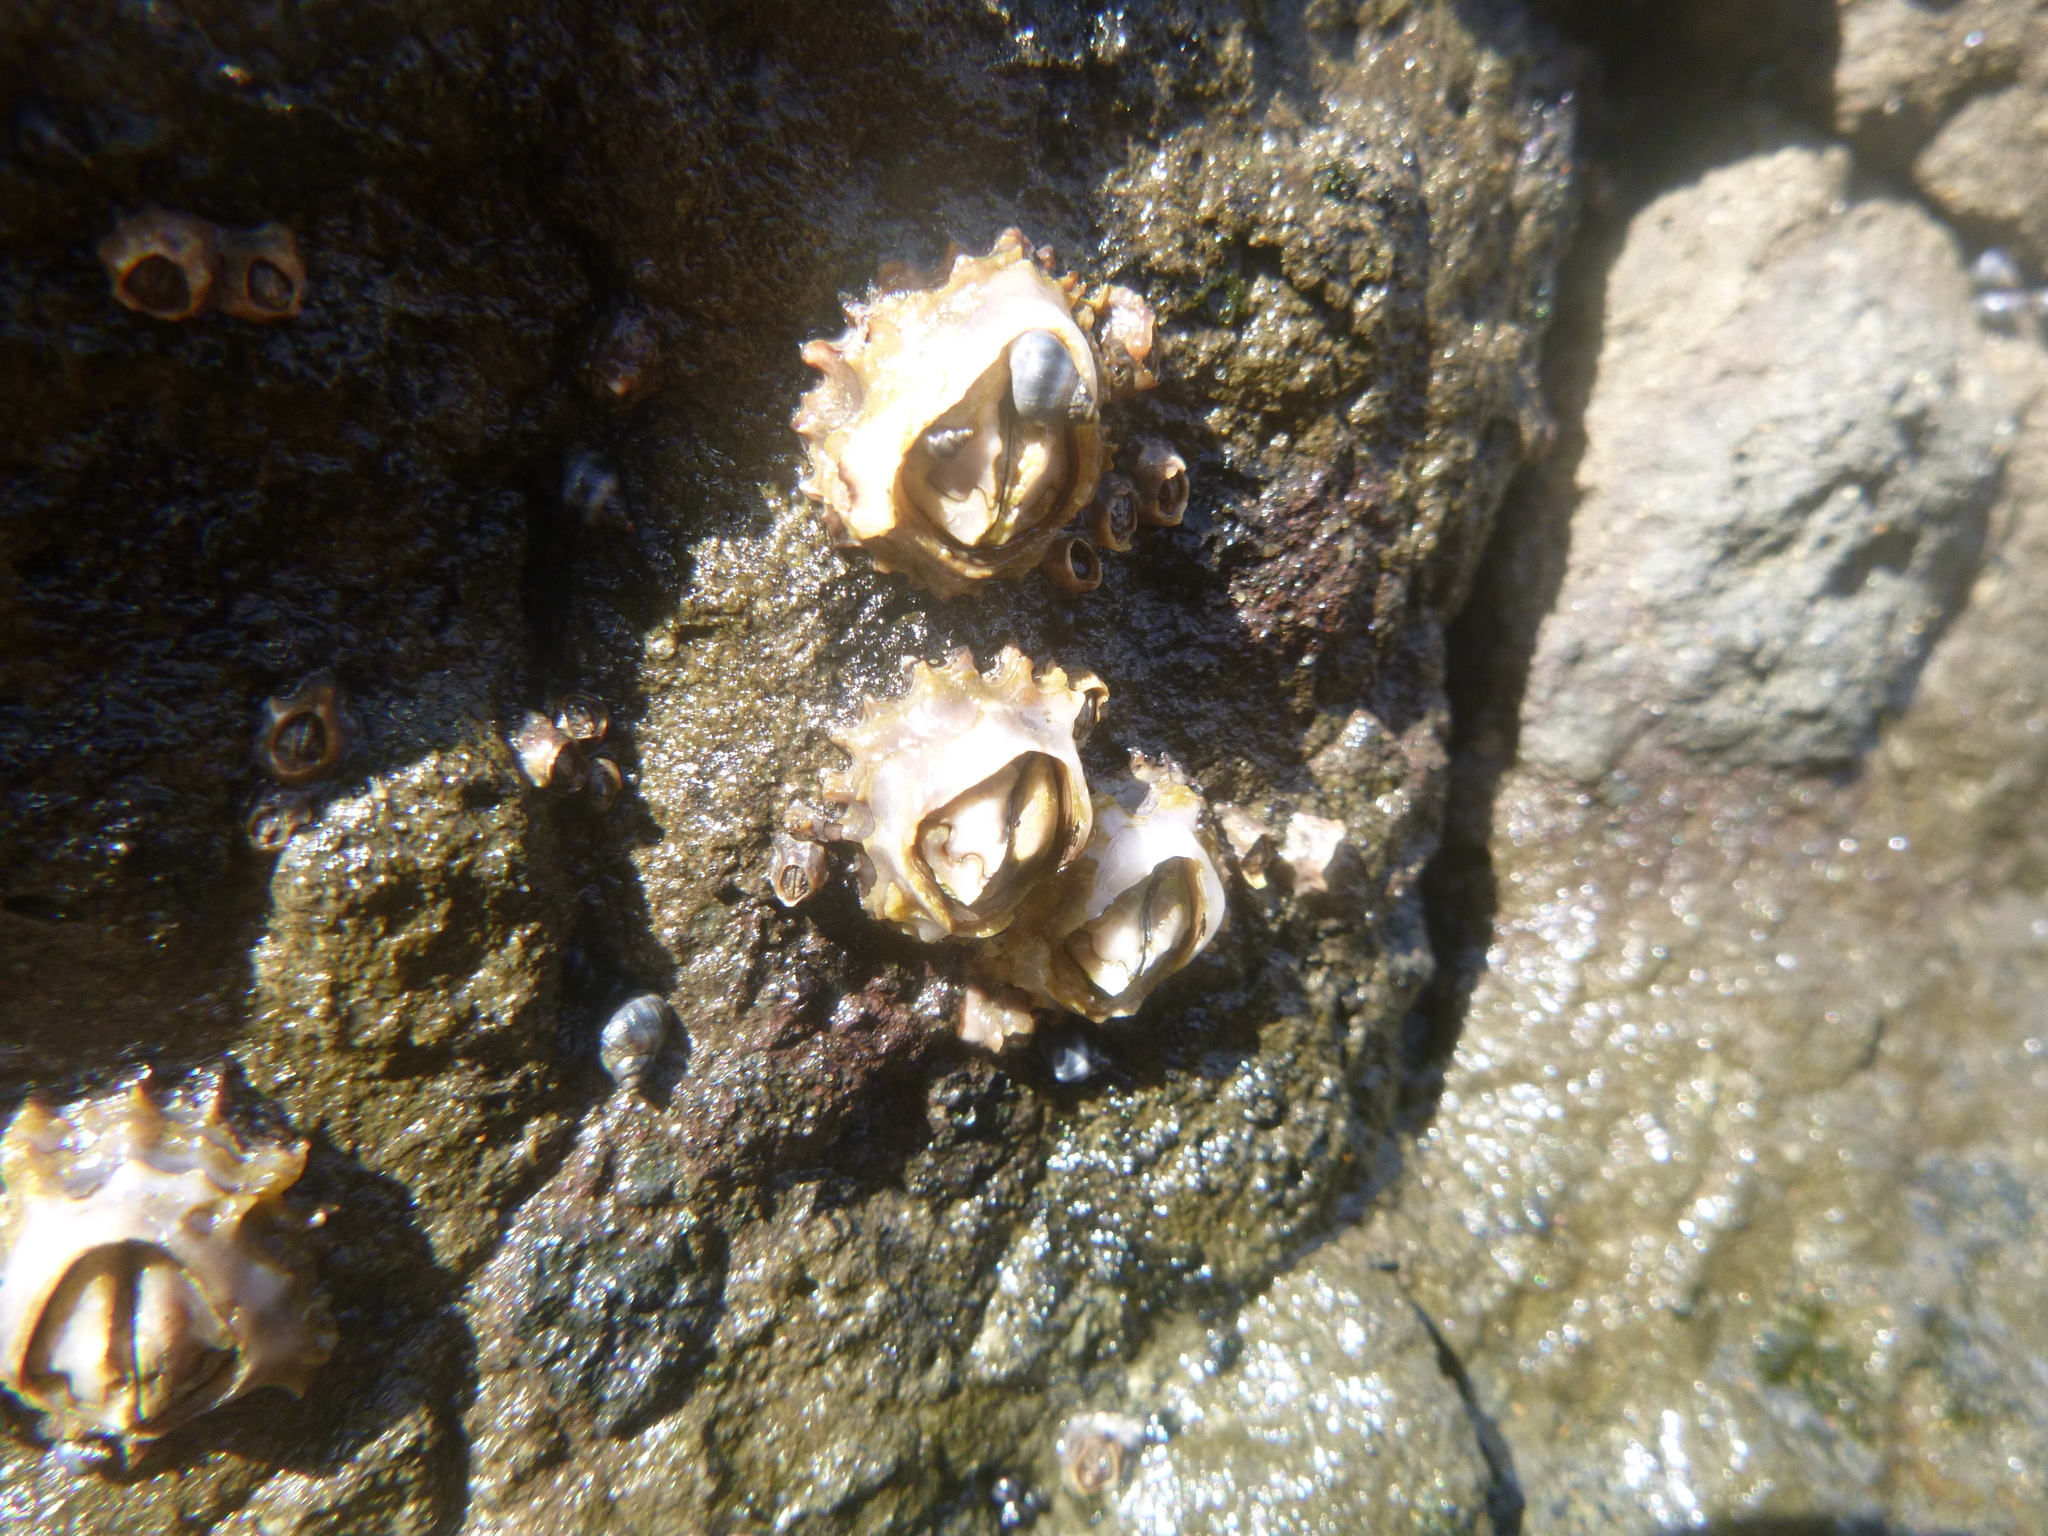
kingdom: Animalia
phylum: Arthropoda
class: Maxillopoda
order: Sessilia
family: Tetraclitidae
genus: Epopella
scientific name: Epopella plicata
